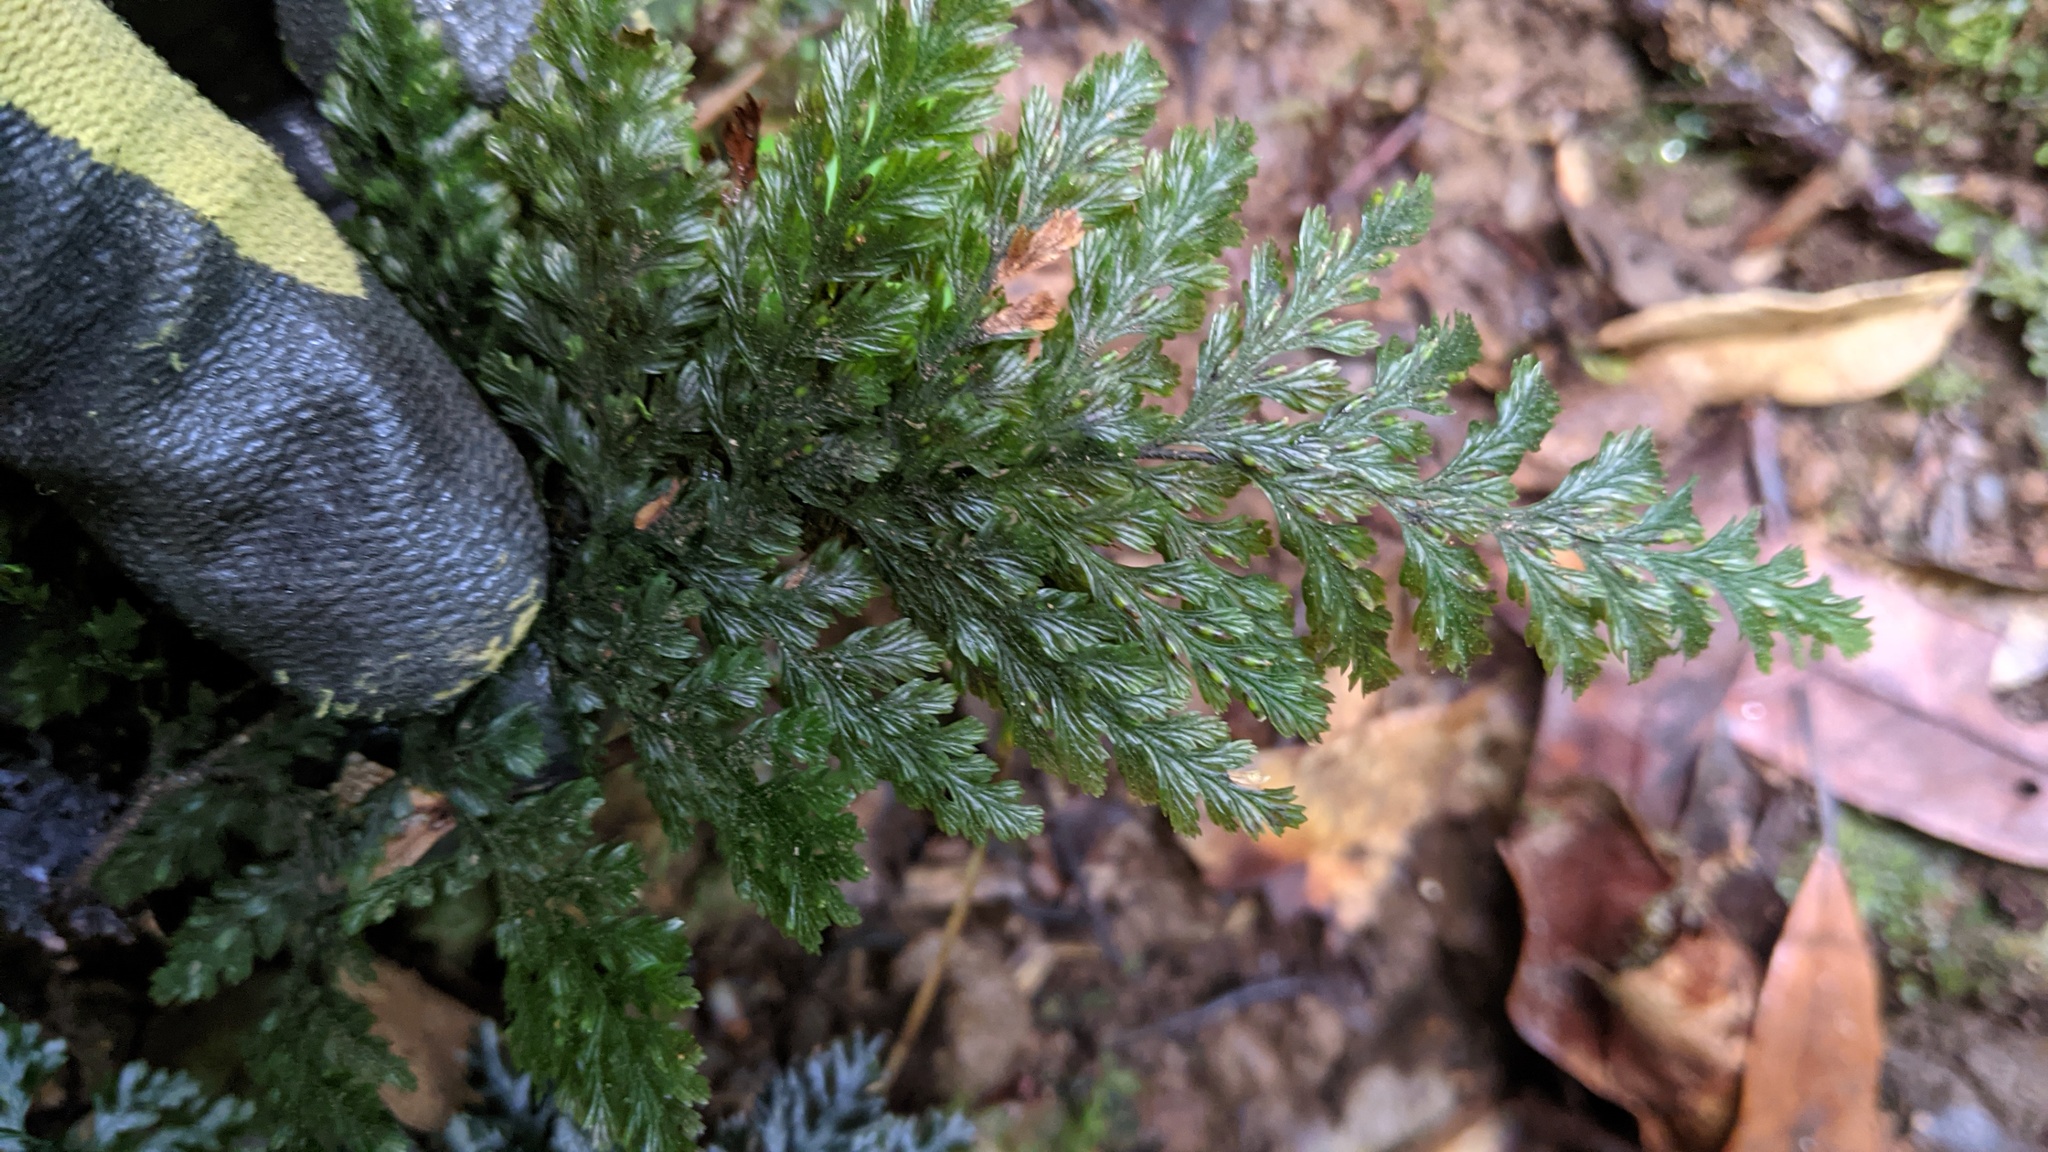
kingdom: Plantae
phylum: Tracheophyta
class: Polypodiopsida
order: Hymenophyllales
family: Hymenophyllaceae
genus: Abrodictyum
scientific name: Abrodictyum obscurum
